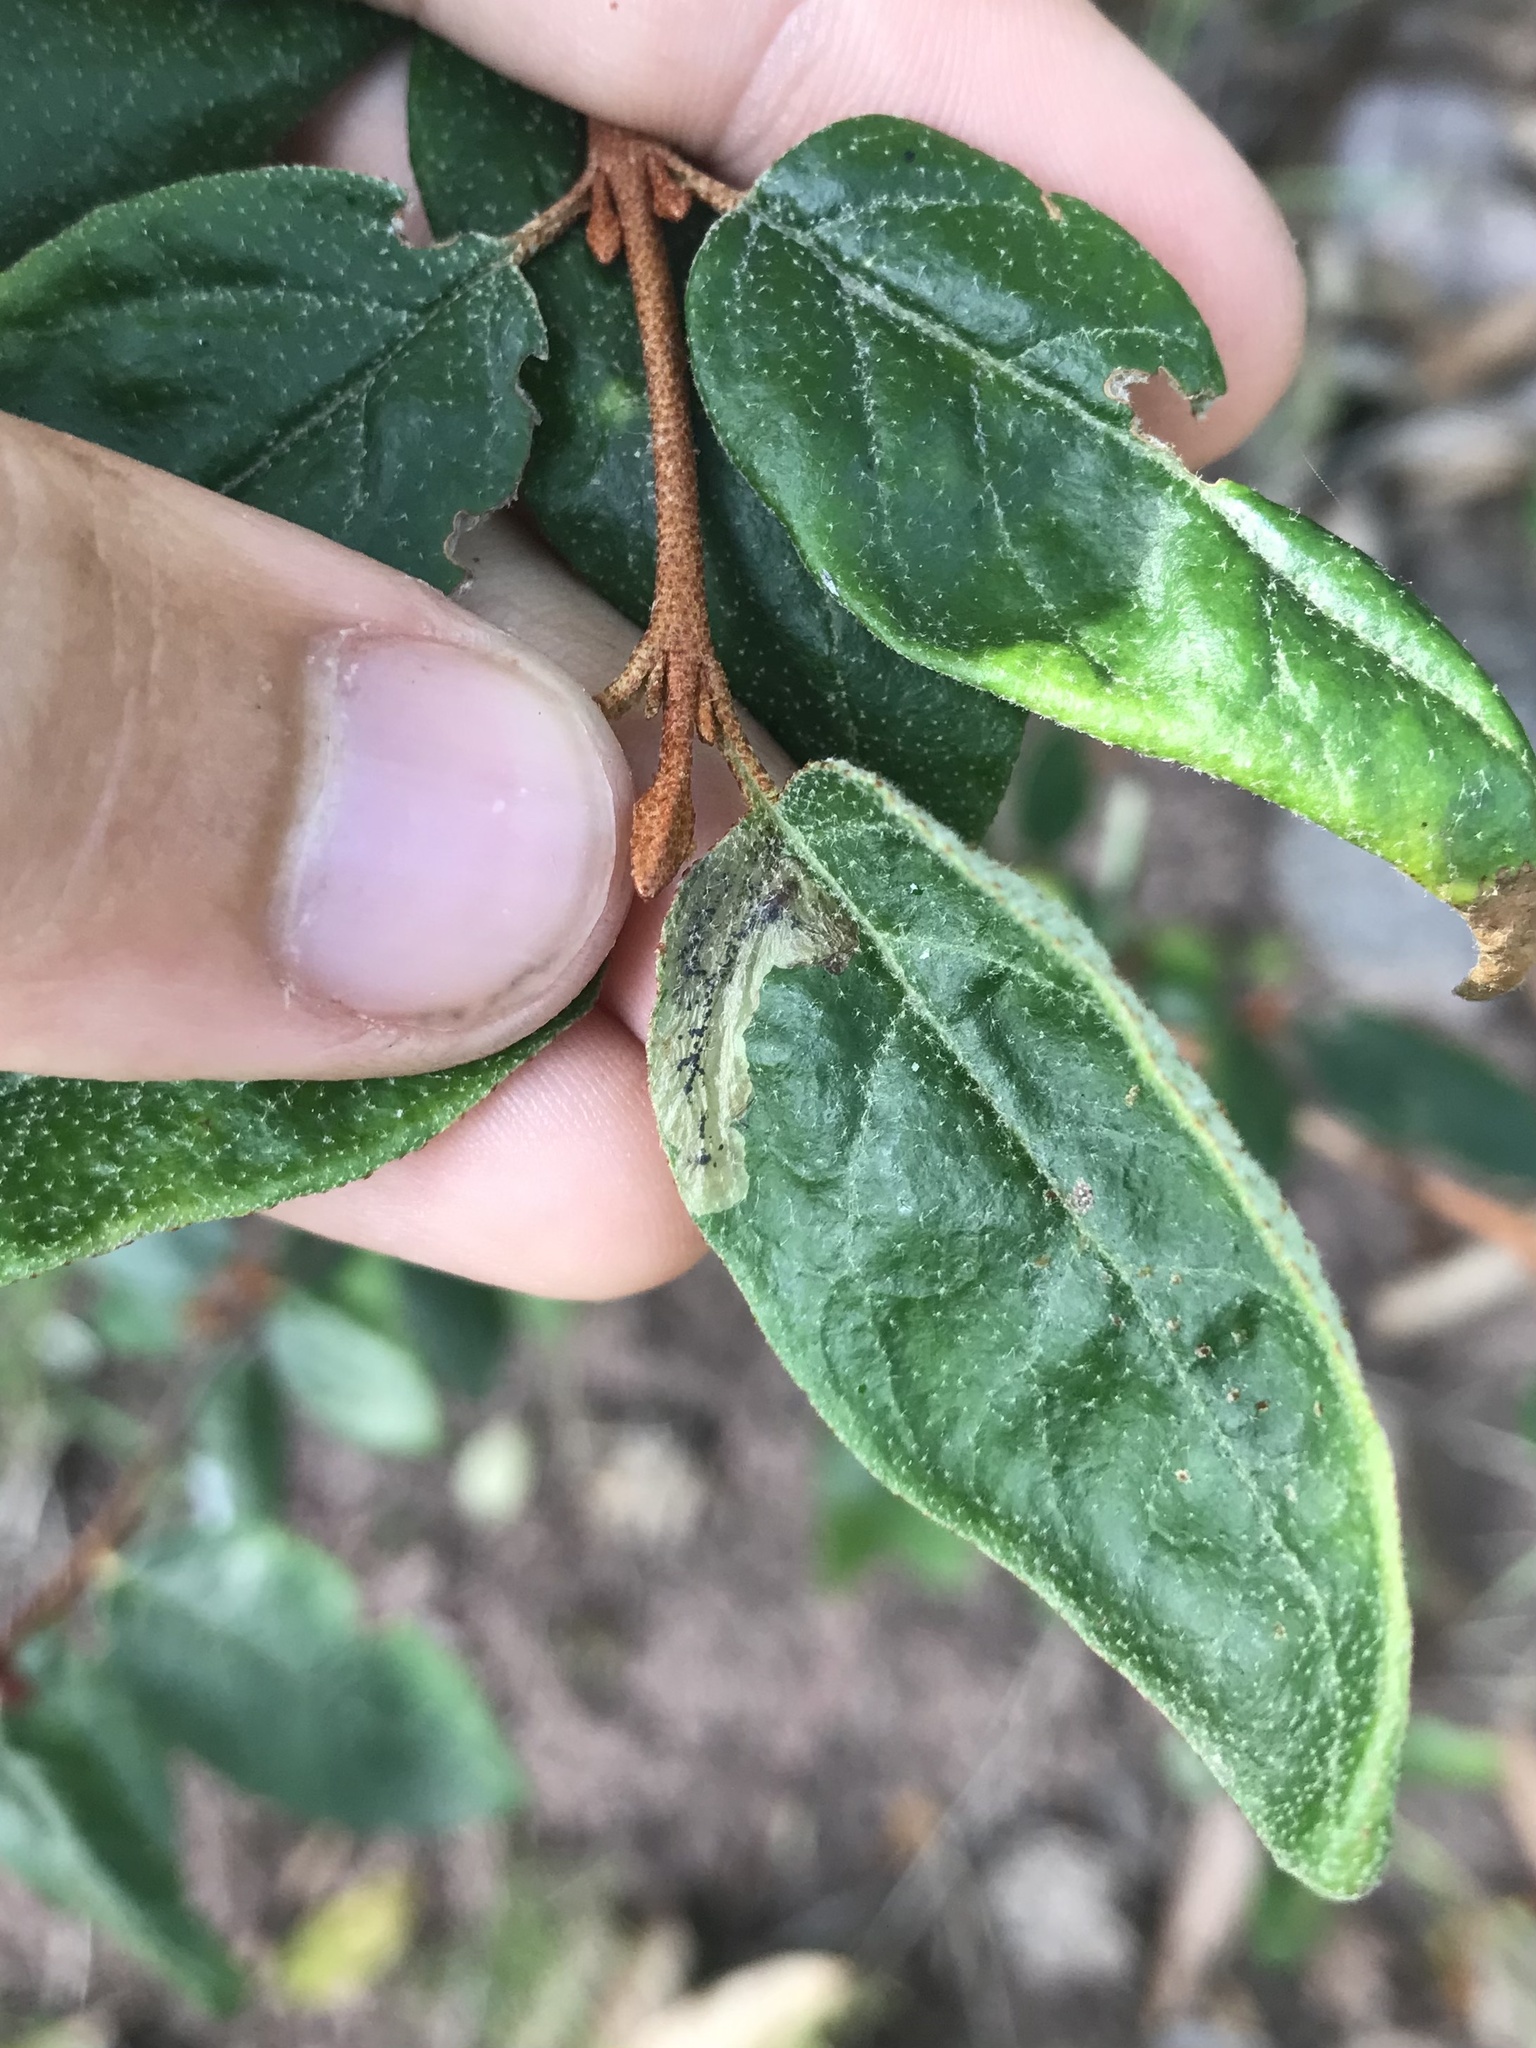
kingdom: Animalia
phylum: Arthropoda
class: Insecta
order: Diptera
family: Agromyzidae
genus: Amauromyza
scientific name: Amauromyza shepherdiae
